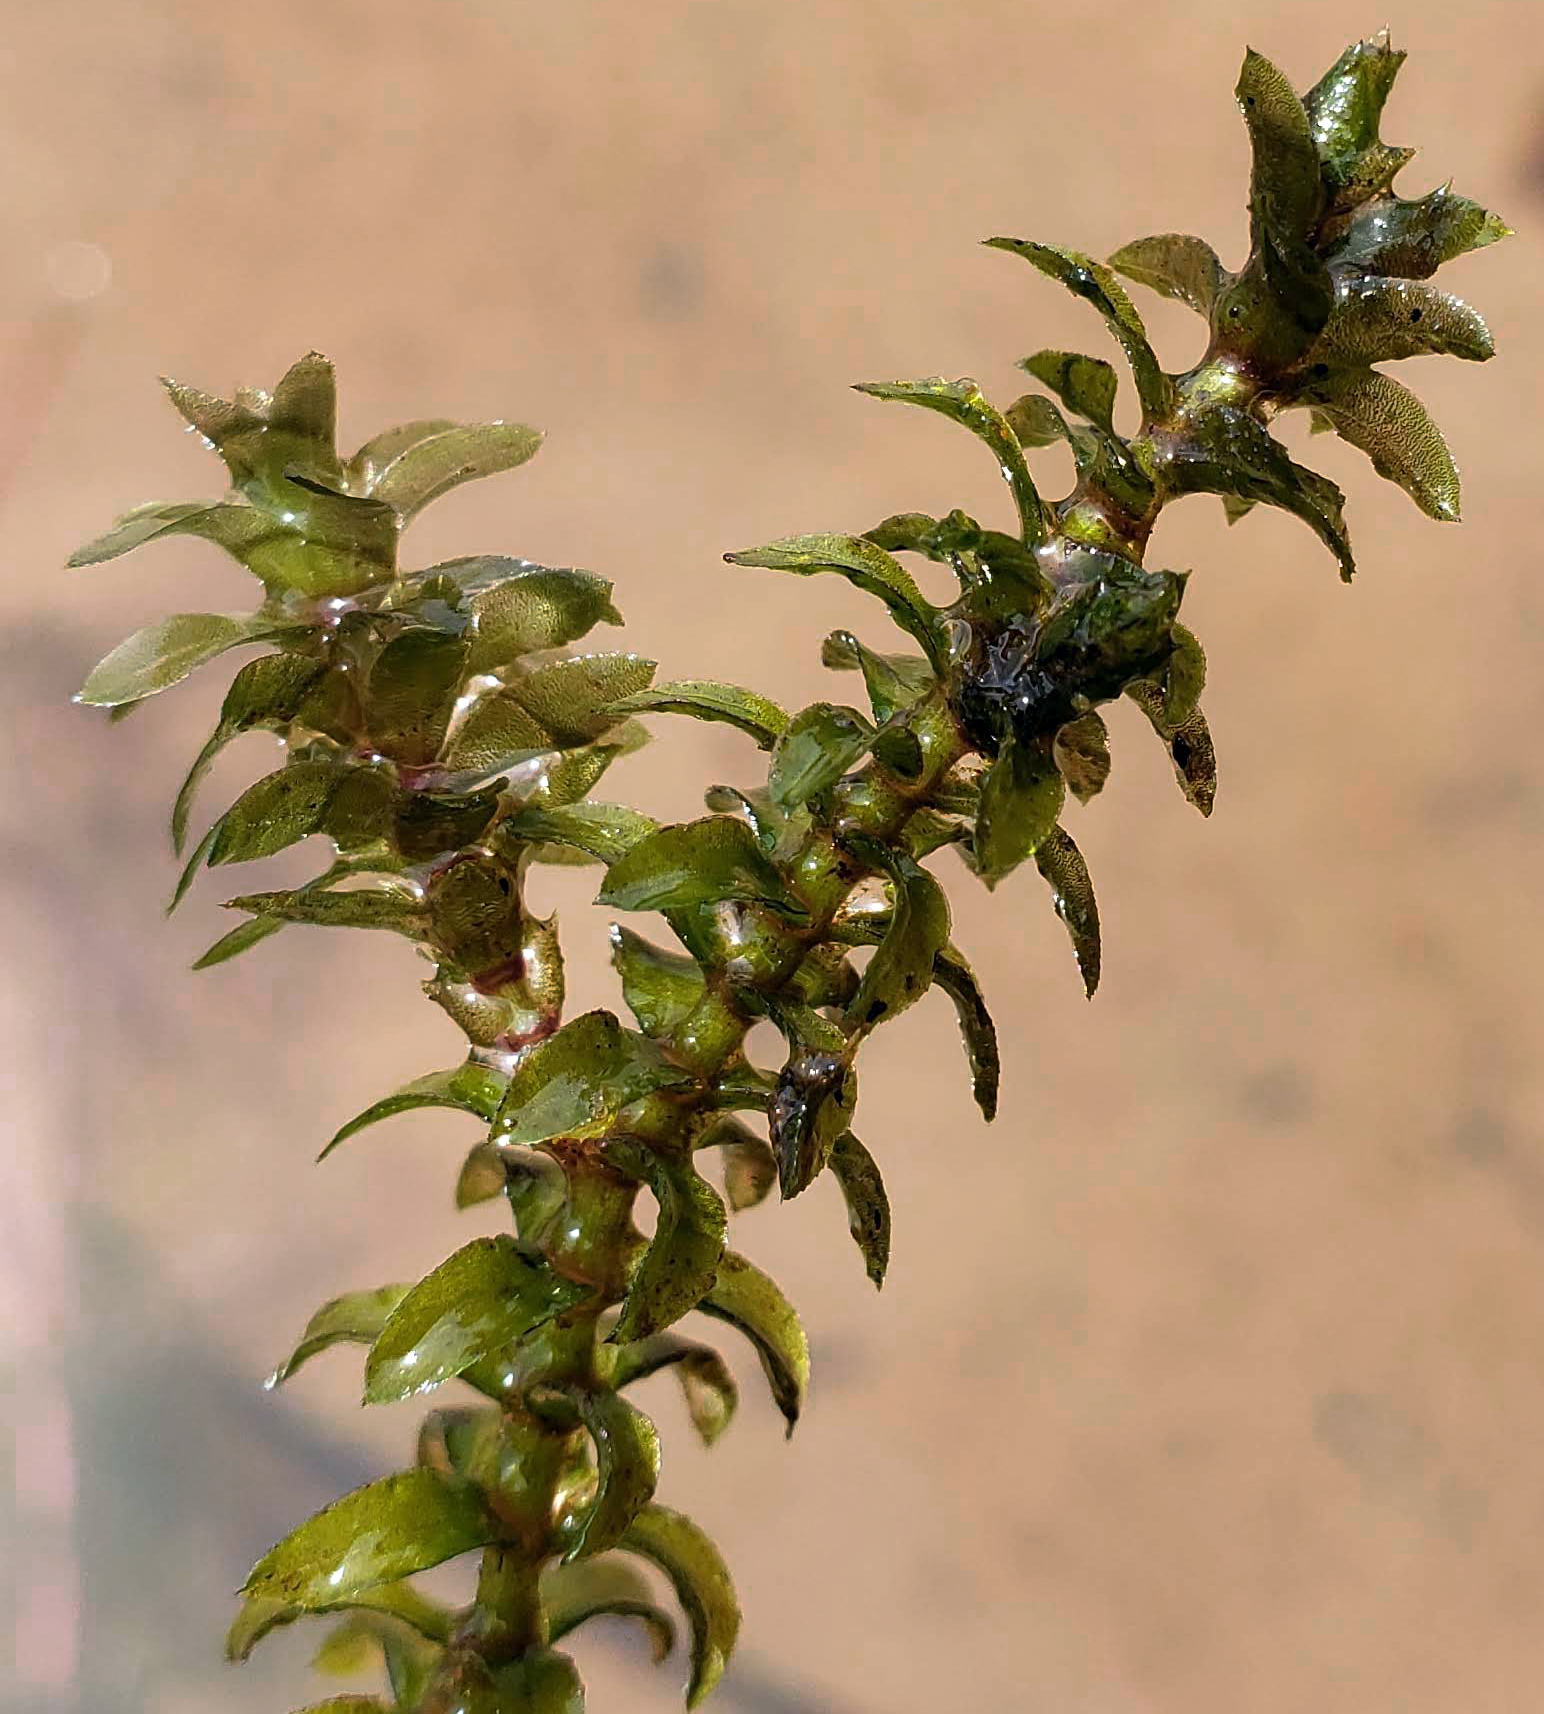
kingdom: Plantae
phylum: Tracheophyta
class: Liliopsida
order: Alismatales
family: Hydrocharitaceae
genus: Elodea
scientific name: Elodea canadensis
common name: Canadian waterweed
